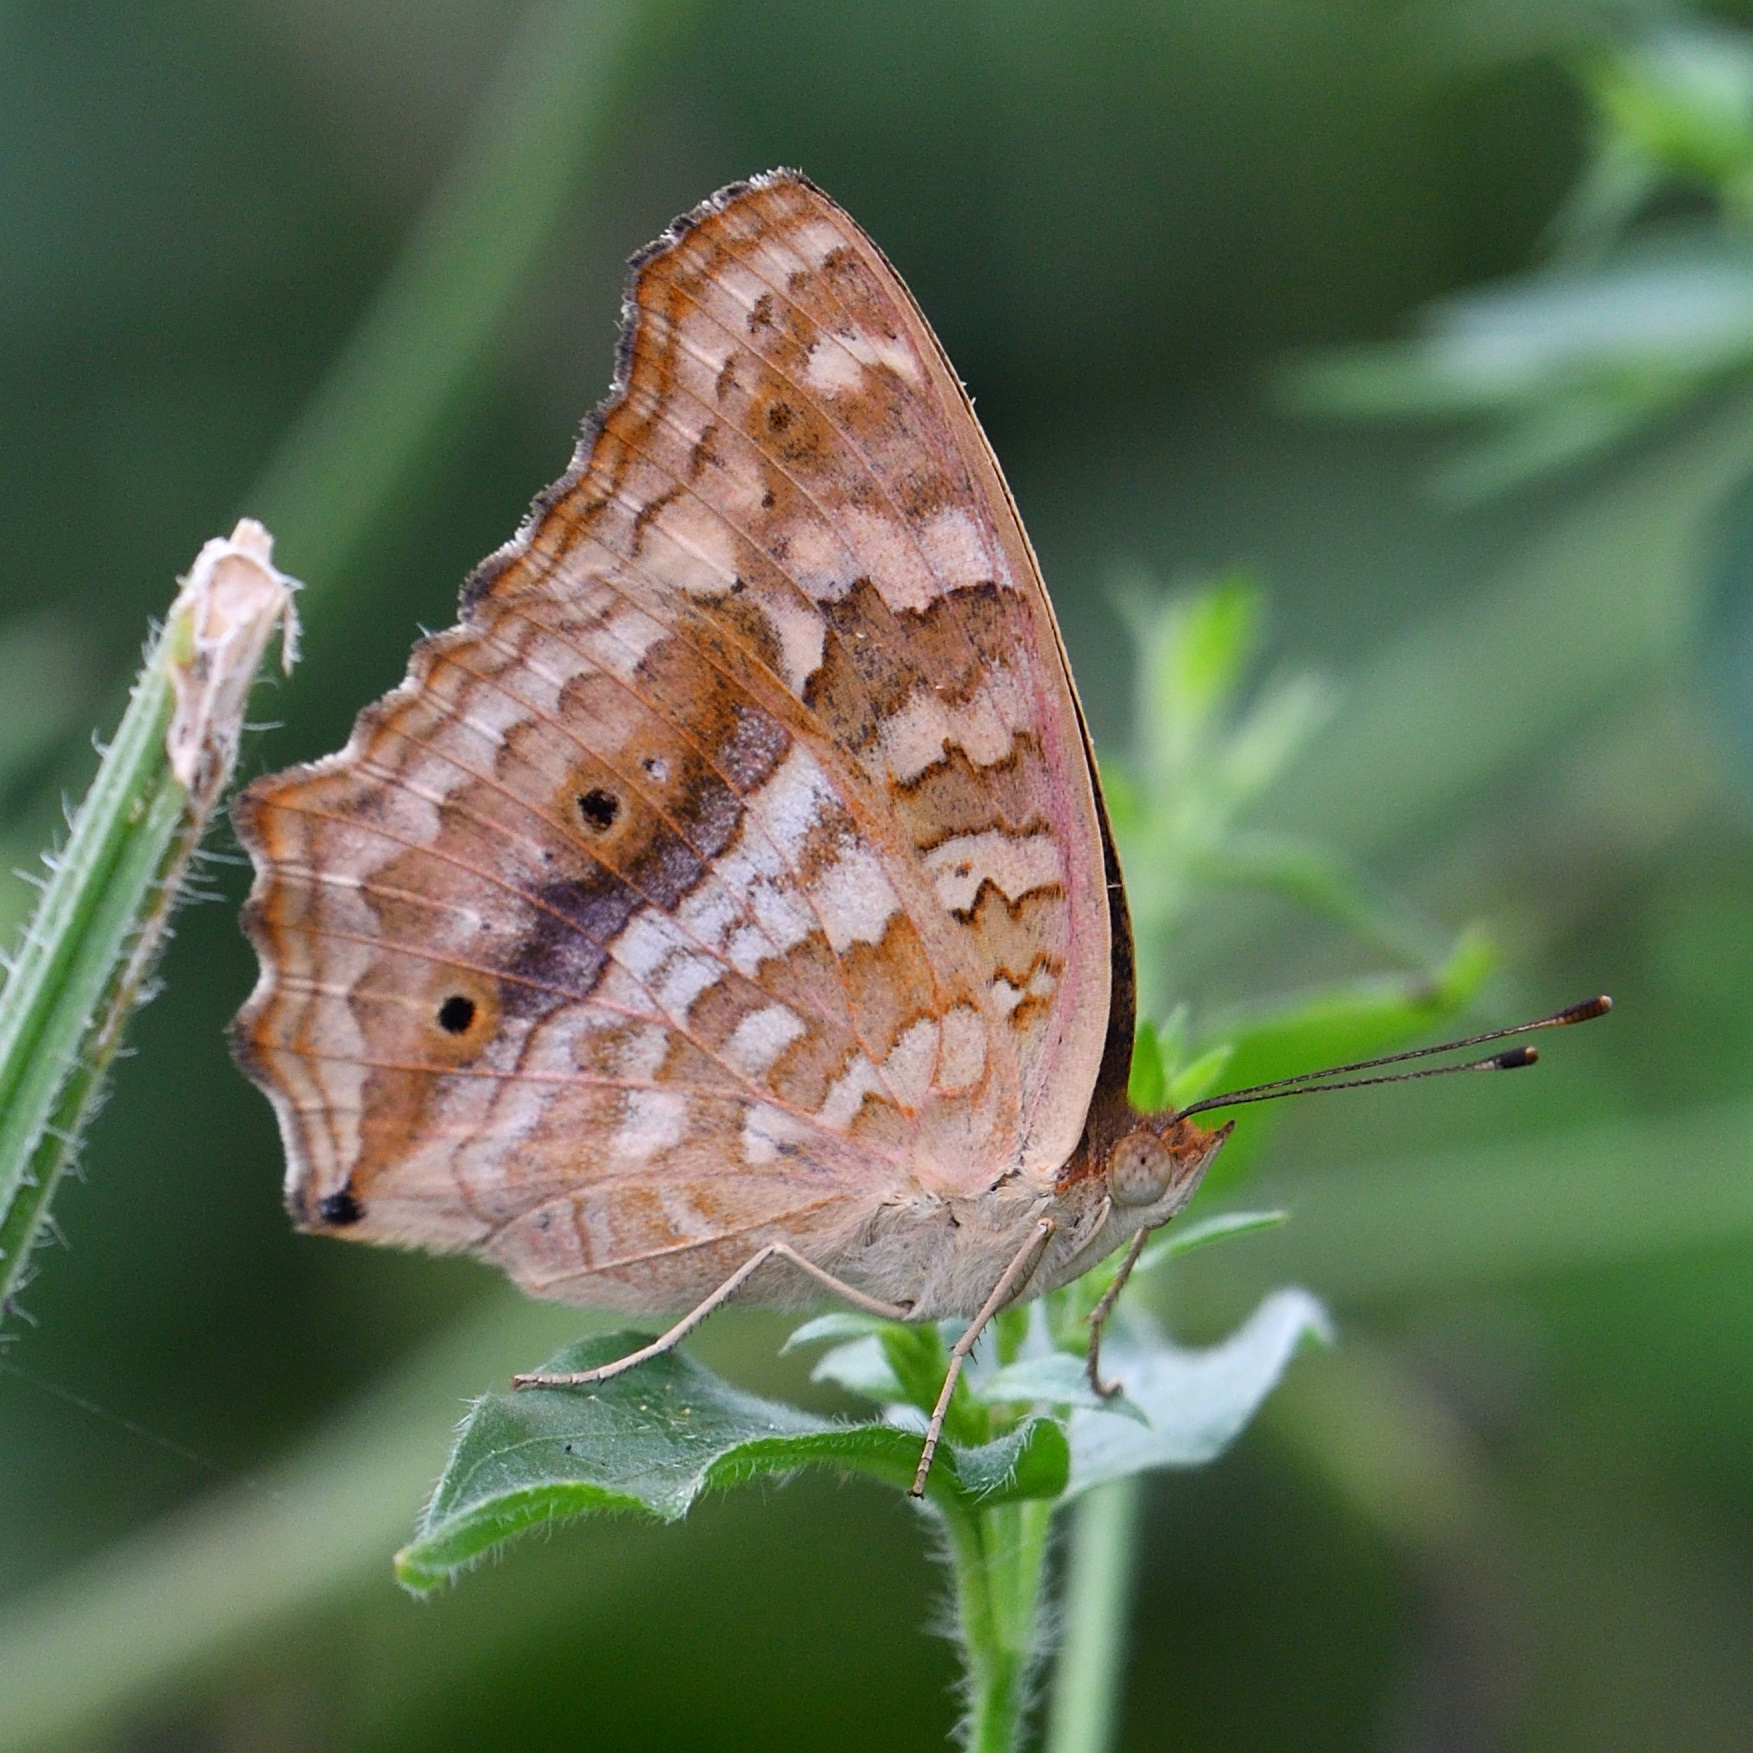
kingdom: Animalia
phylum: Arthropoda
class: Insecta
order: Lepidoptera
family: Nymphalidae
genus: Junonia
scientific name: Junonia lemonias
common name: Lemon pansy
